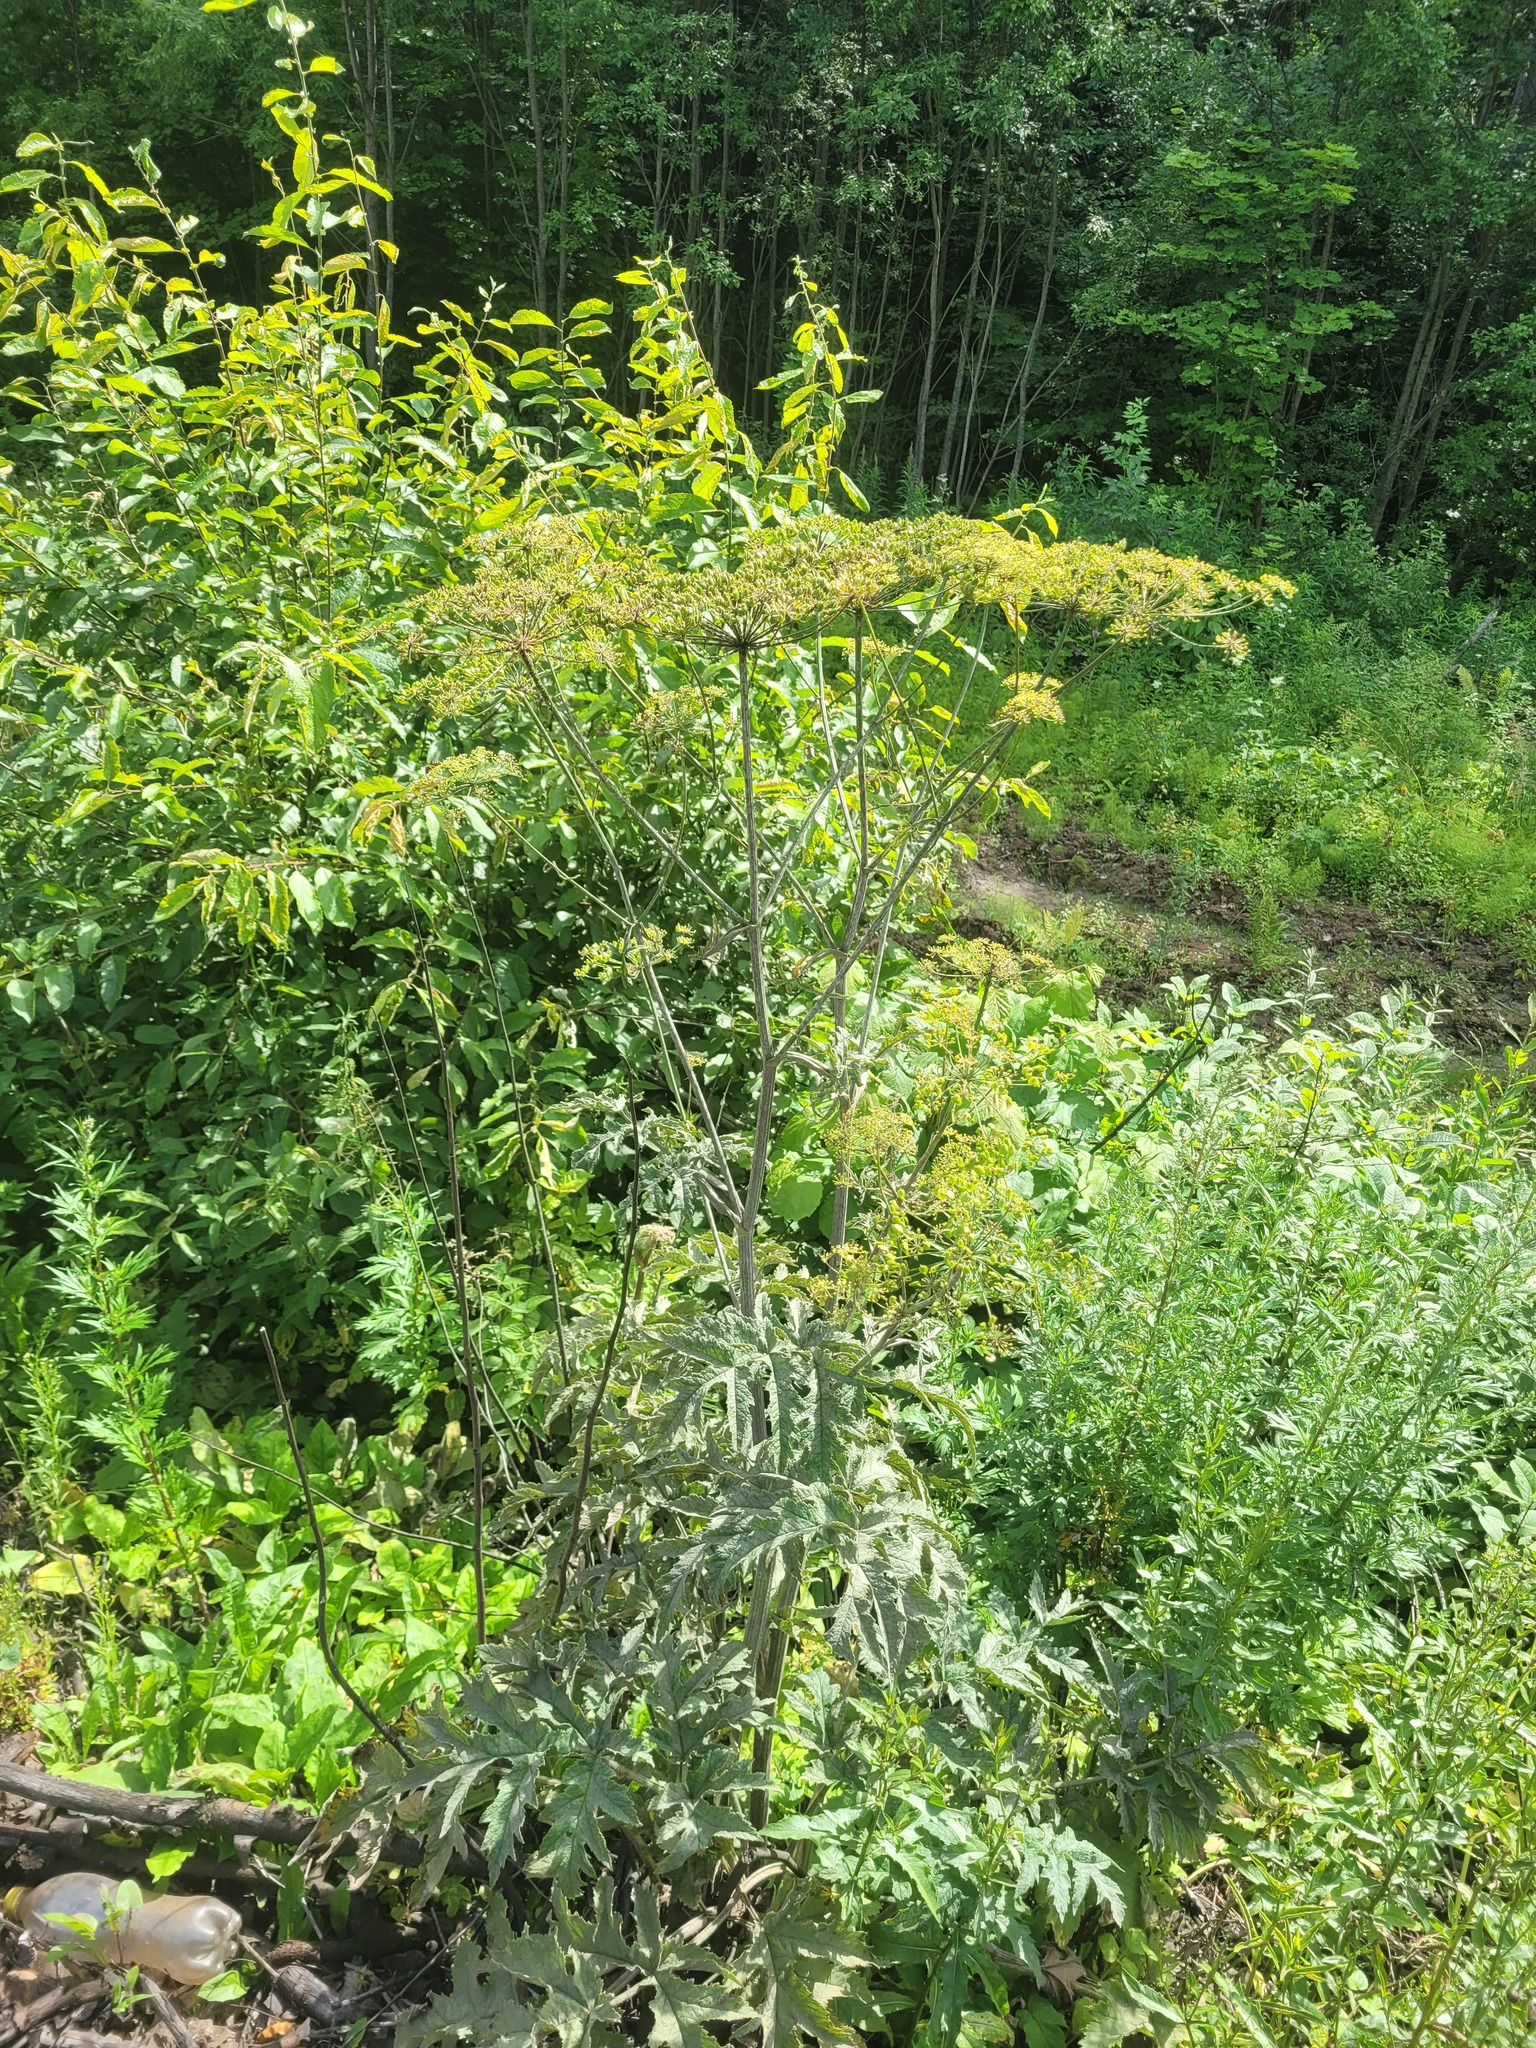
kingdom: Plantae
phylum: Tracheophyta
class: Magnoliopsida
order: Apiales
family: Apiaceae
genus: Heracleum
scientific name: Heracleum sphondylium
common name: Hogweed
